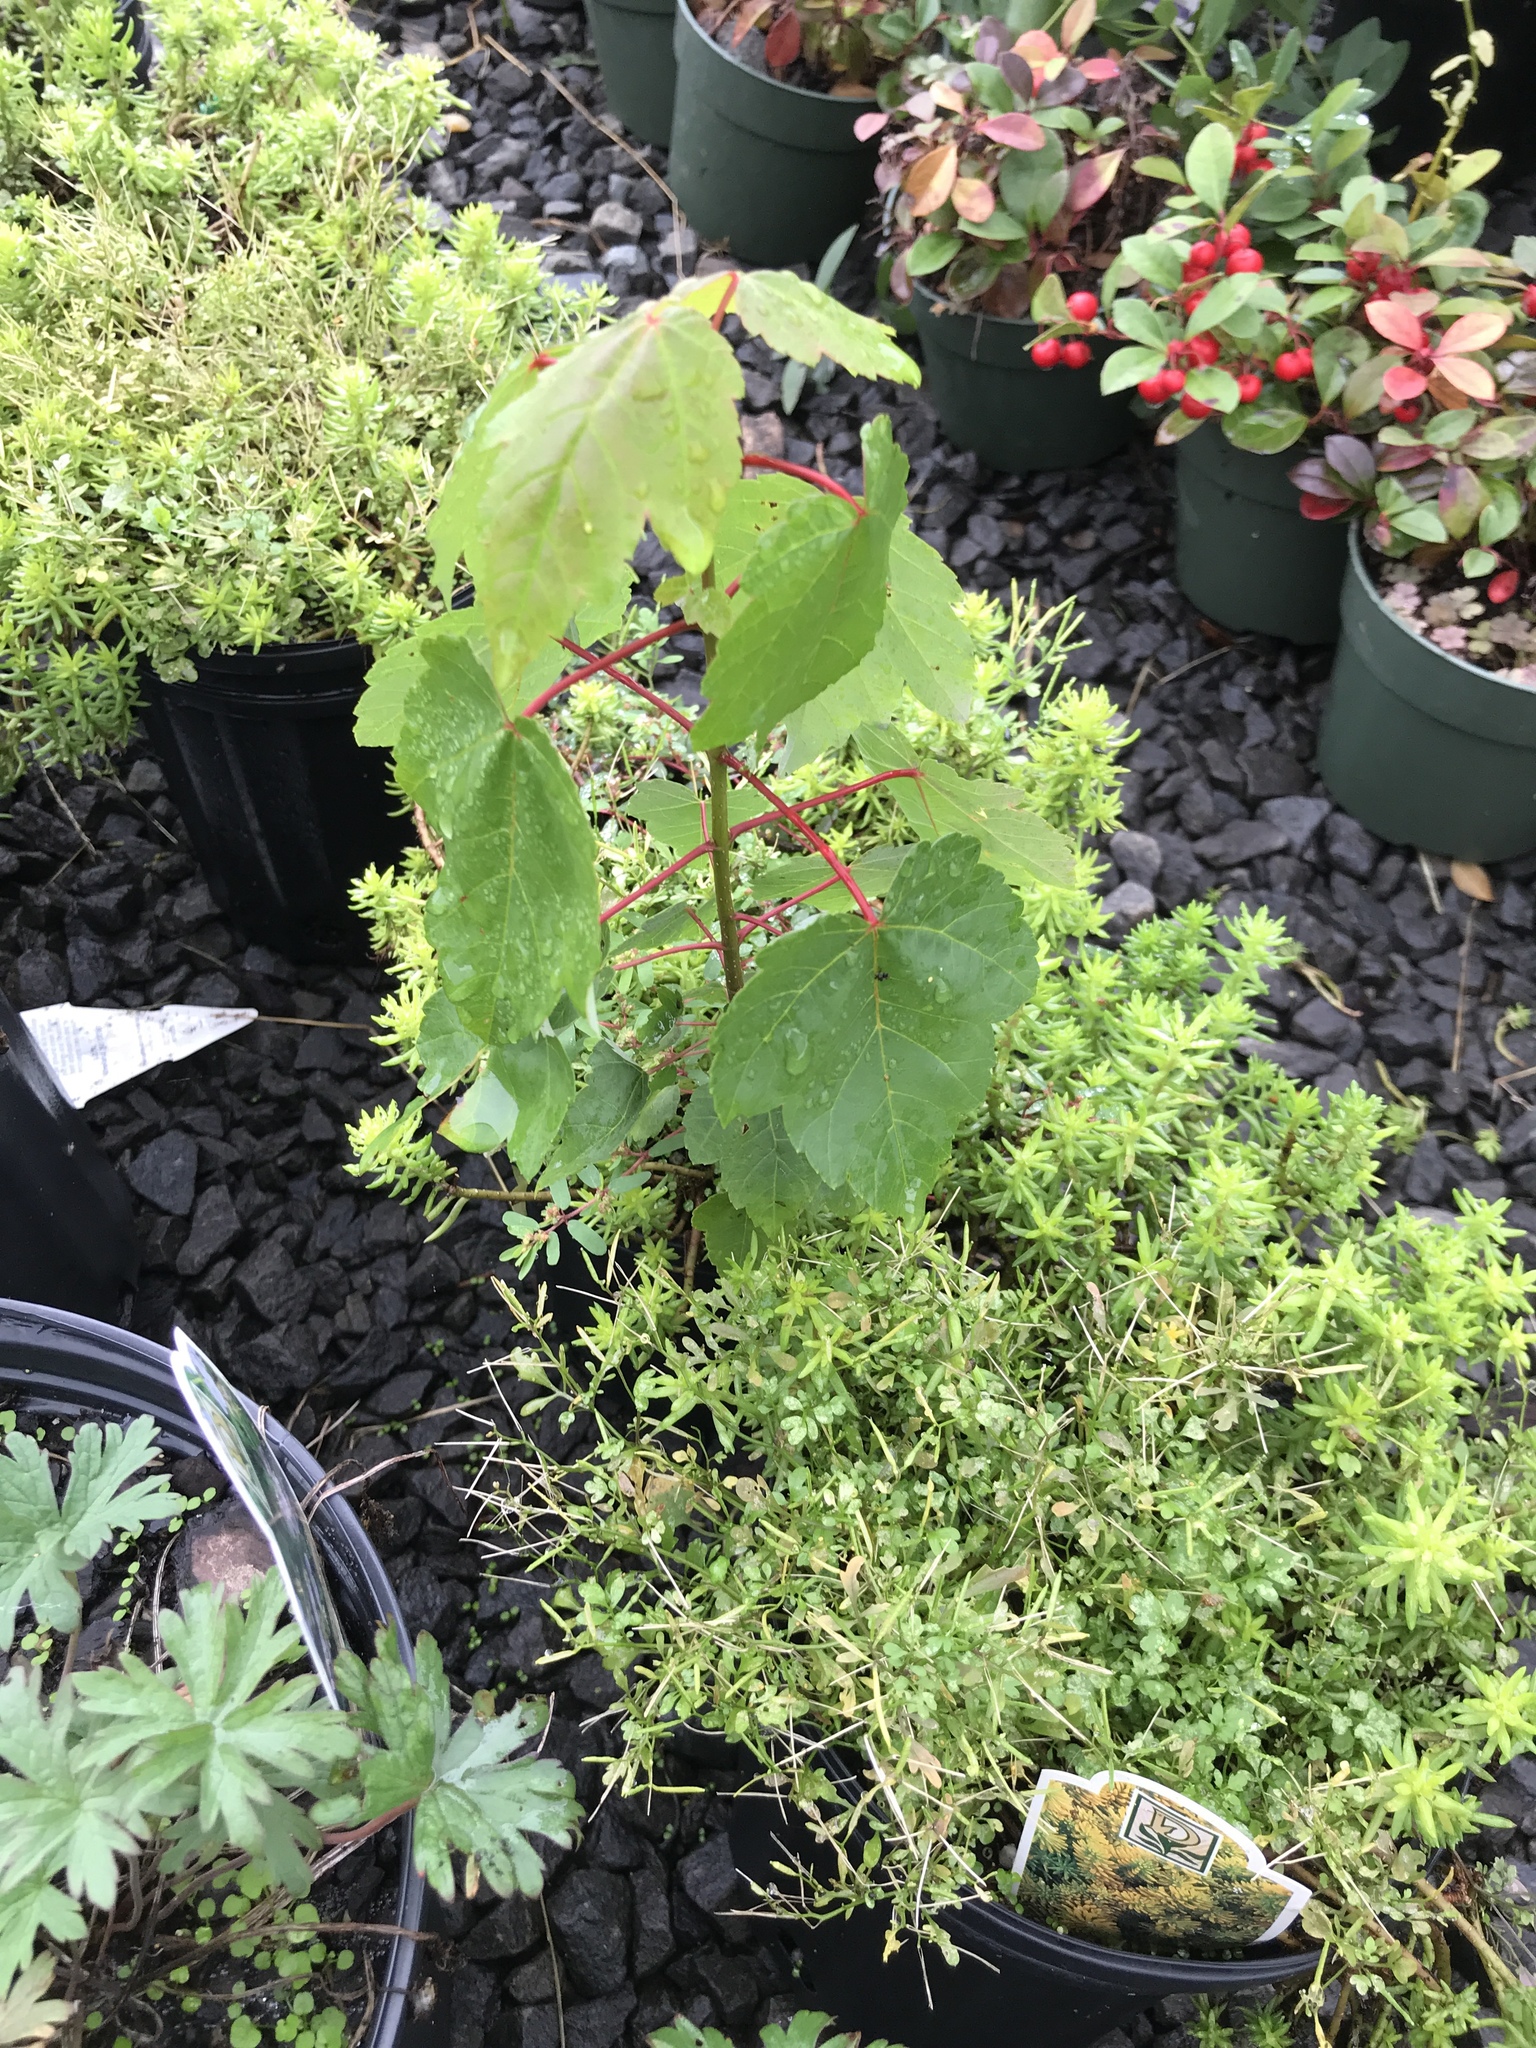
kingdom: Plantae
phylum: Tracheophyta
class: Magnoliopsida
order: Sapindales
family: Sapindaceae
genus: Acer
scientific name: Acer rubrum
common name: Red maple
